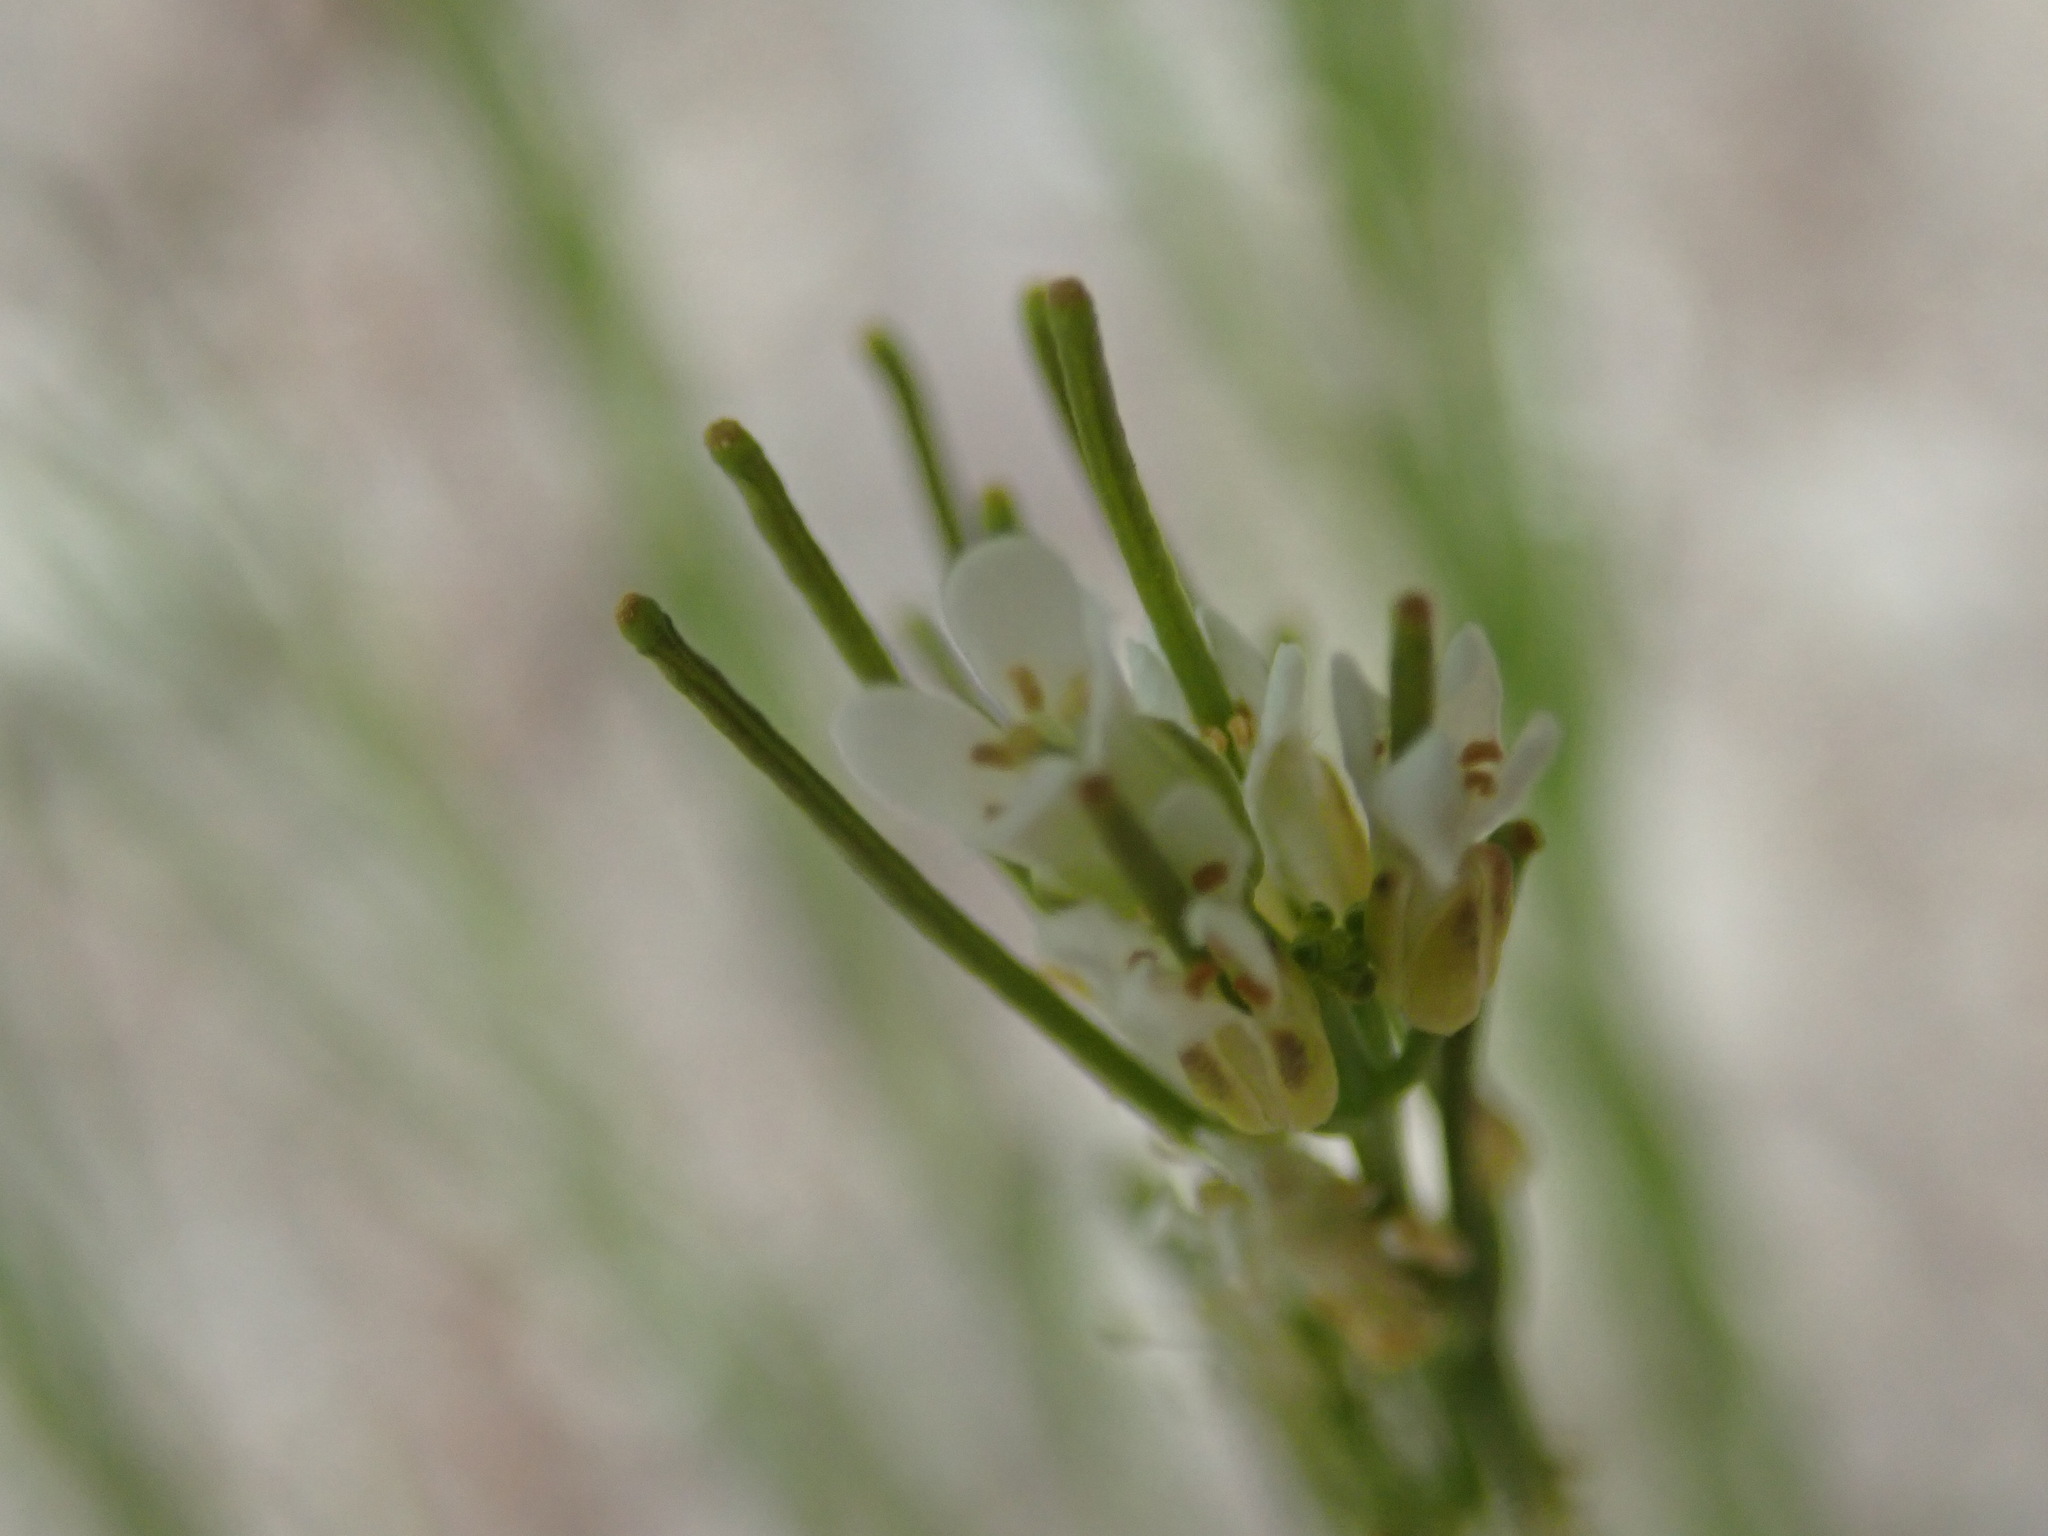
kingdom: Plantae
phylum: Tracheophyta
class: Magnoliopsida
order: Brassicales
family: Brassicaceae
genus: Arabis
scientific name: Arabis hirsuta
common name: Hairy rock-cress
